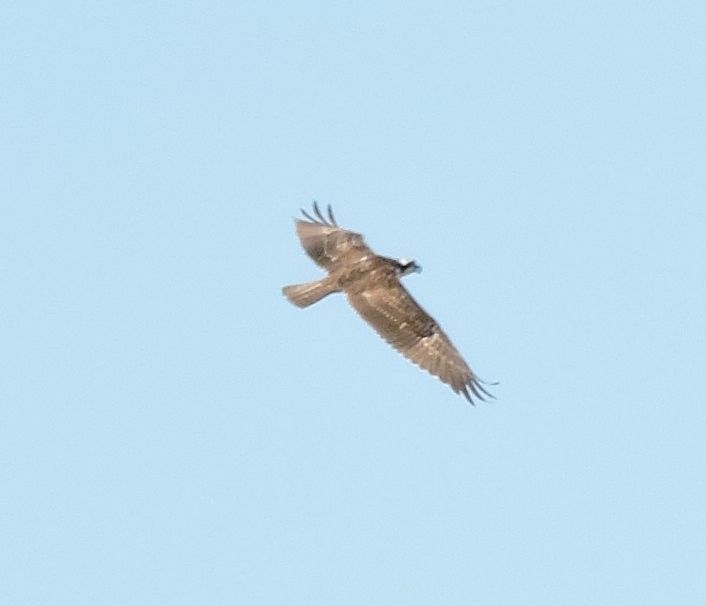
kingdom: Animalia
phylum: Chordata
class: Aves
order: Accipitriformes
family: Pandionidae
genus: Pandion
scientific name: Pandion haliaetus
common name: Osprey
